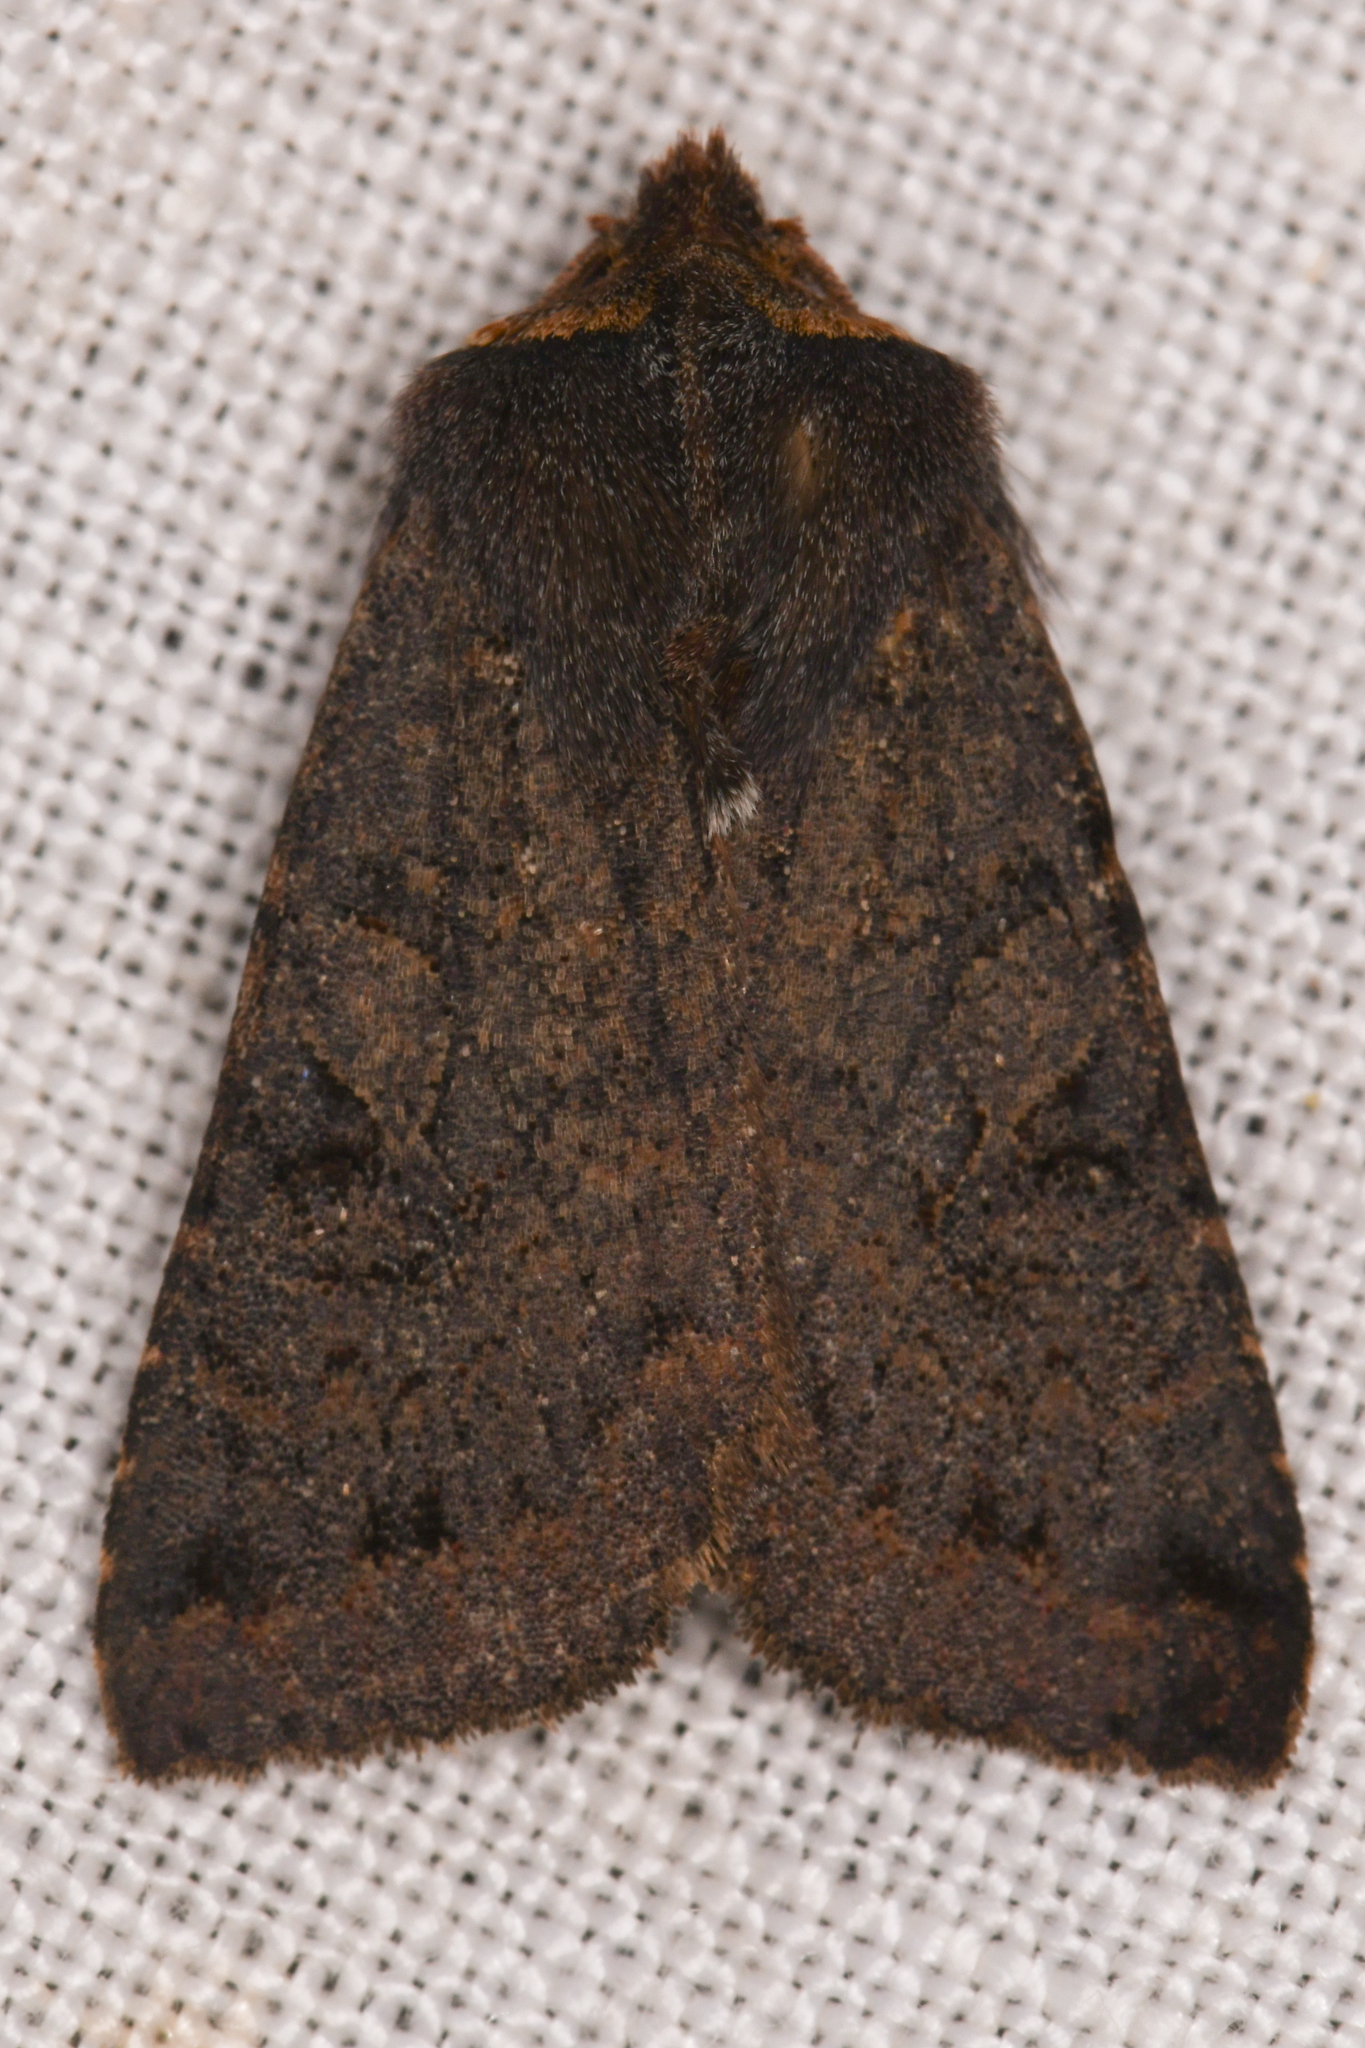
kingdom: Animalia
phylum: Arthropoda
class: Insecta
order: Lepidoptera
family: Noctuidae
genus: Orthosia
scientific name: Orthosia praeses
